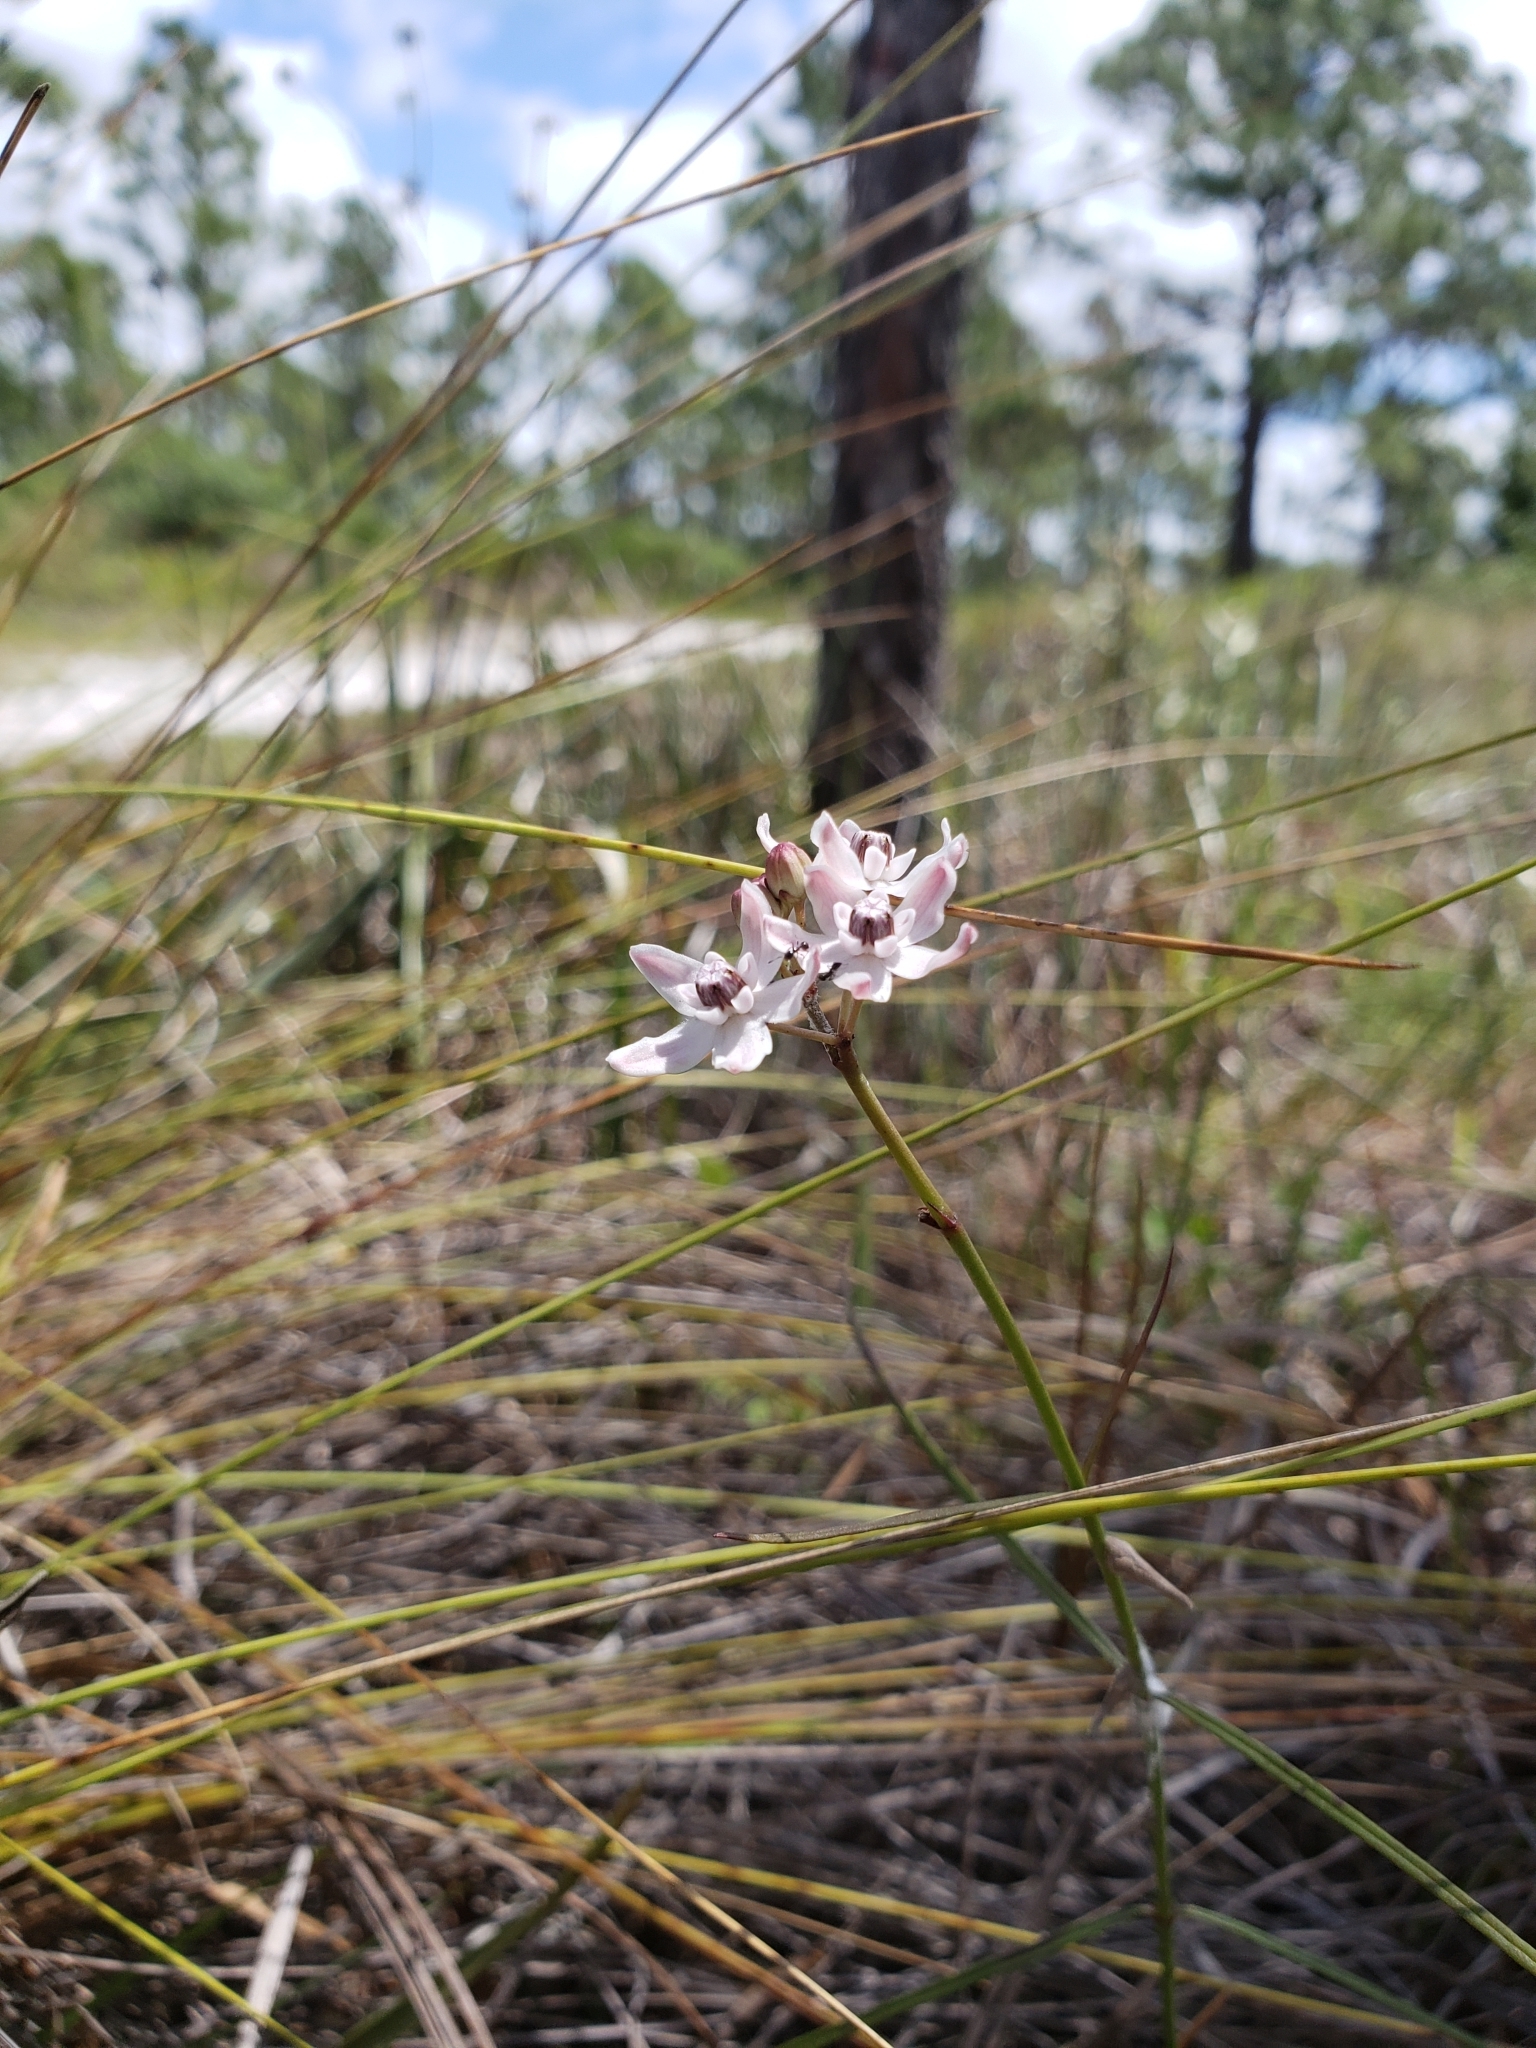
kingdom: Plantae
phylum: Tracheophyta
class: Magnoliopsida
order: Gentianales
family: Apocynaceae
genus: Asclepias
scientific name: Asclepias feayi
